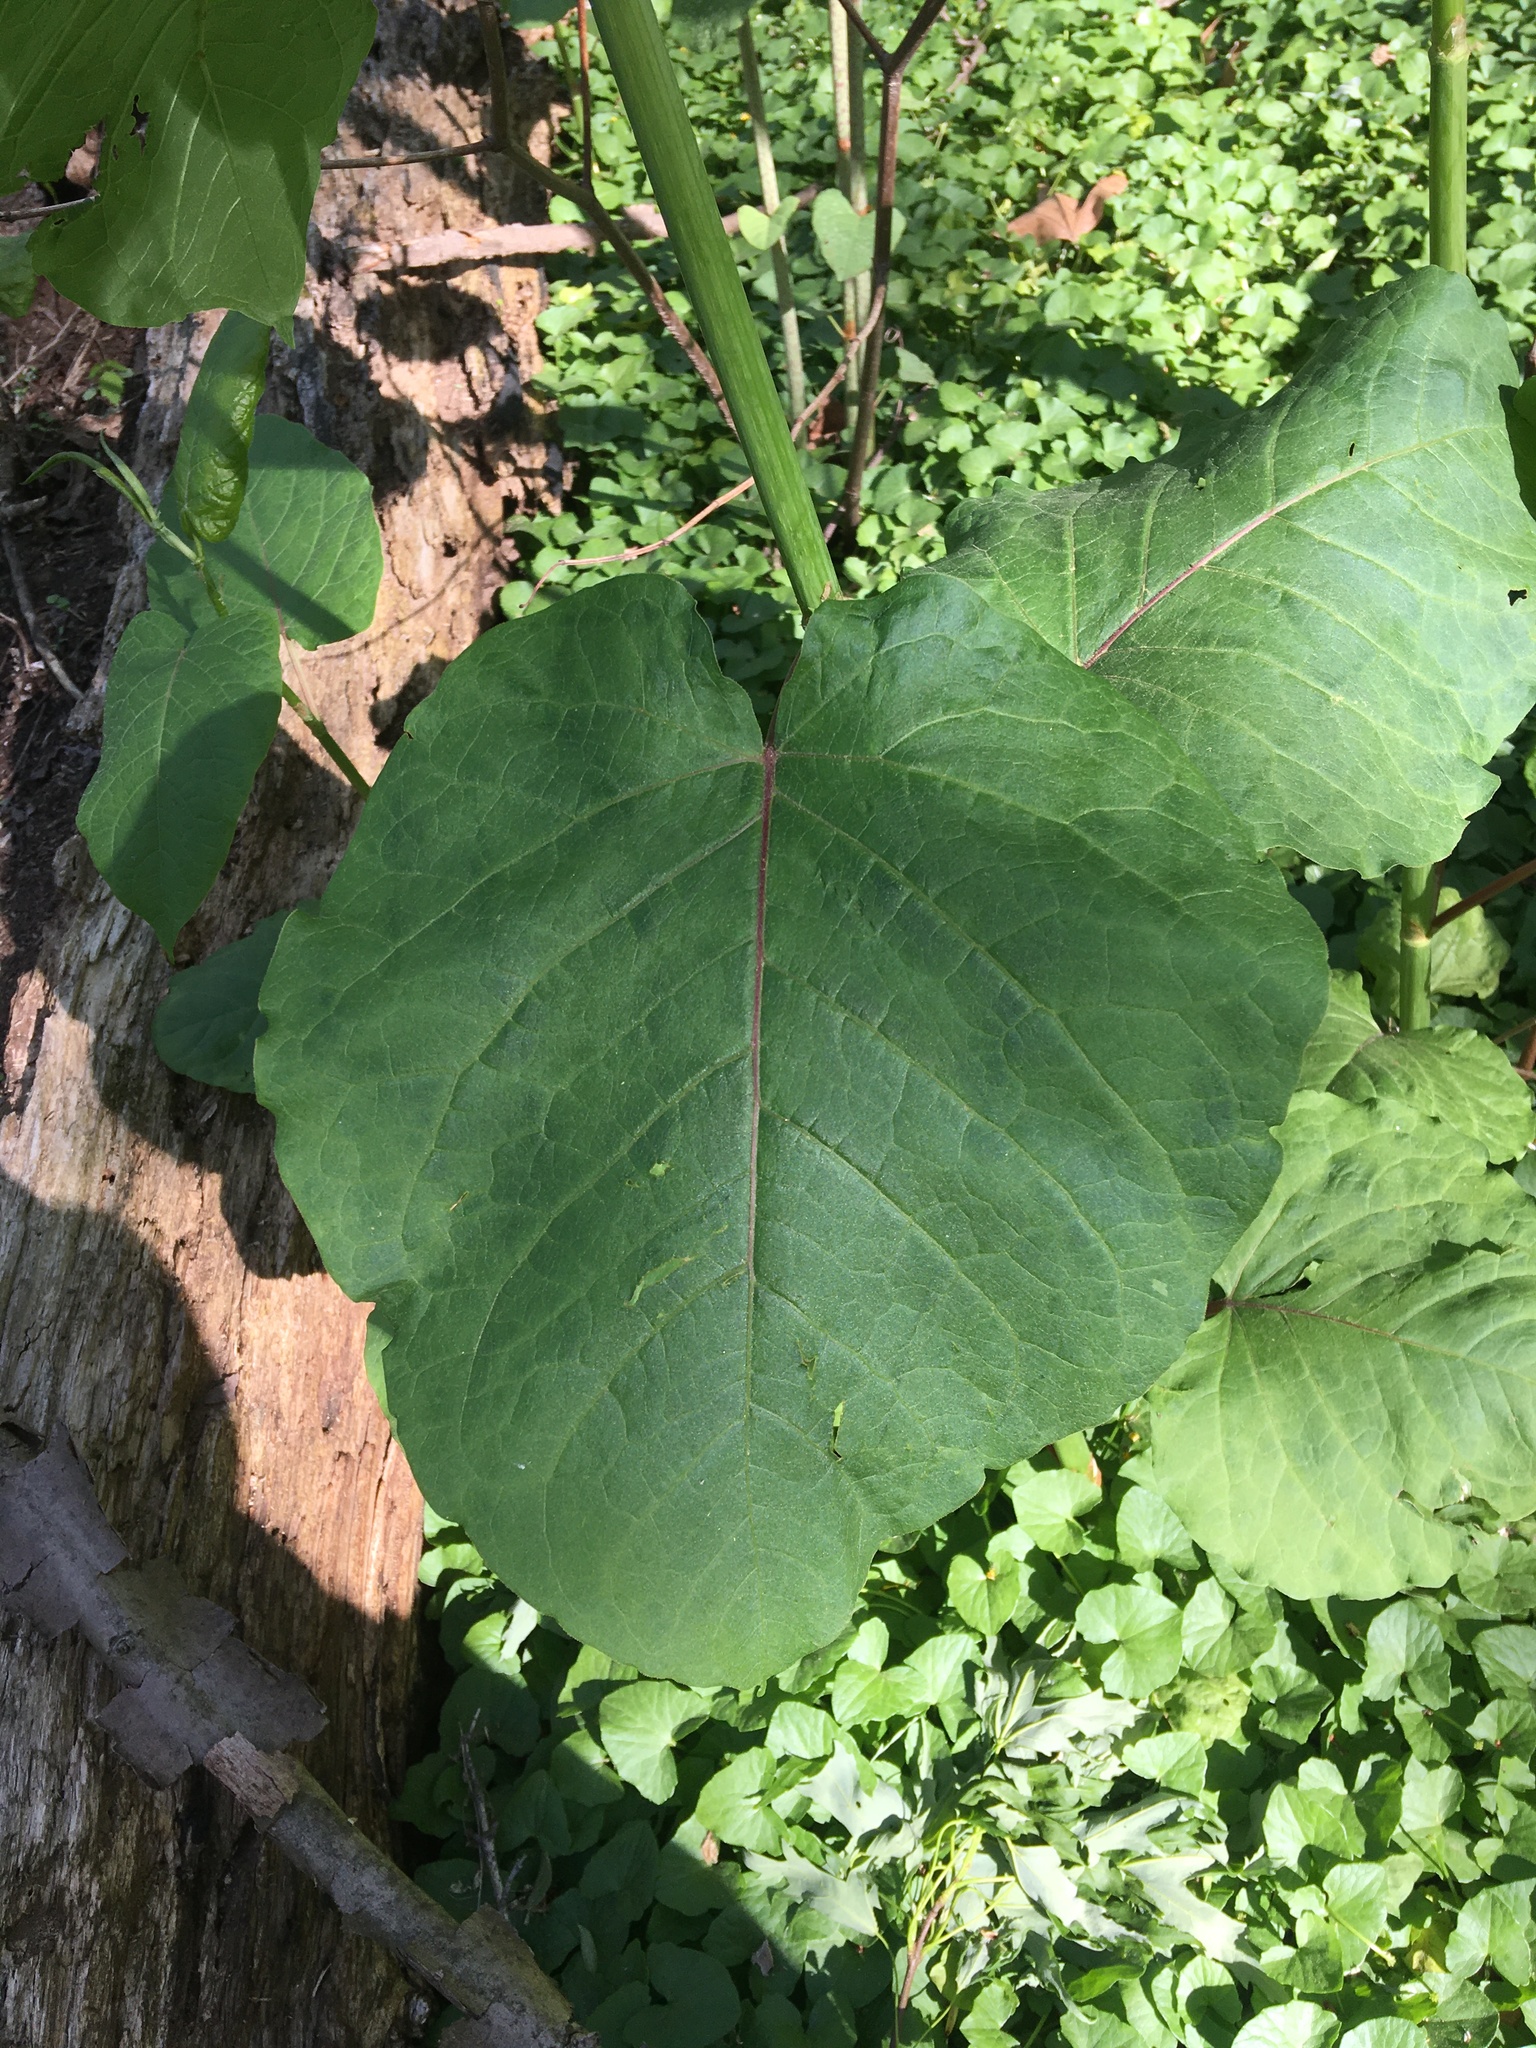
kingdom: Plantae
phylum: Tracheophyta
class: Magnoliopsida
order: Caryophyllales
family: Polygonaceae
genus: Reynoutria
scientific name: Reynoutria sachalinensis
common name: Giant knotweed
